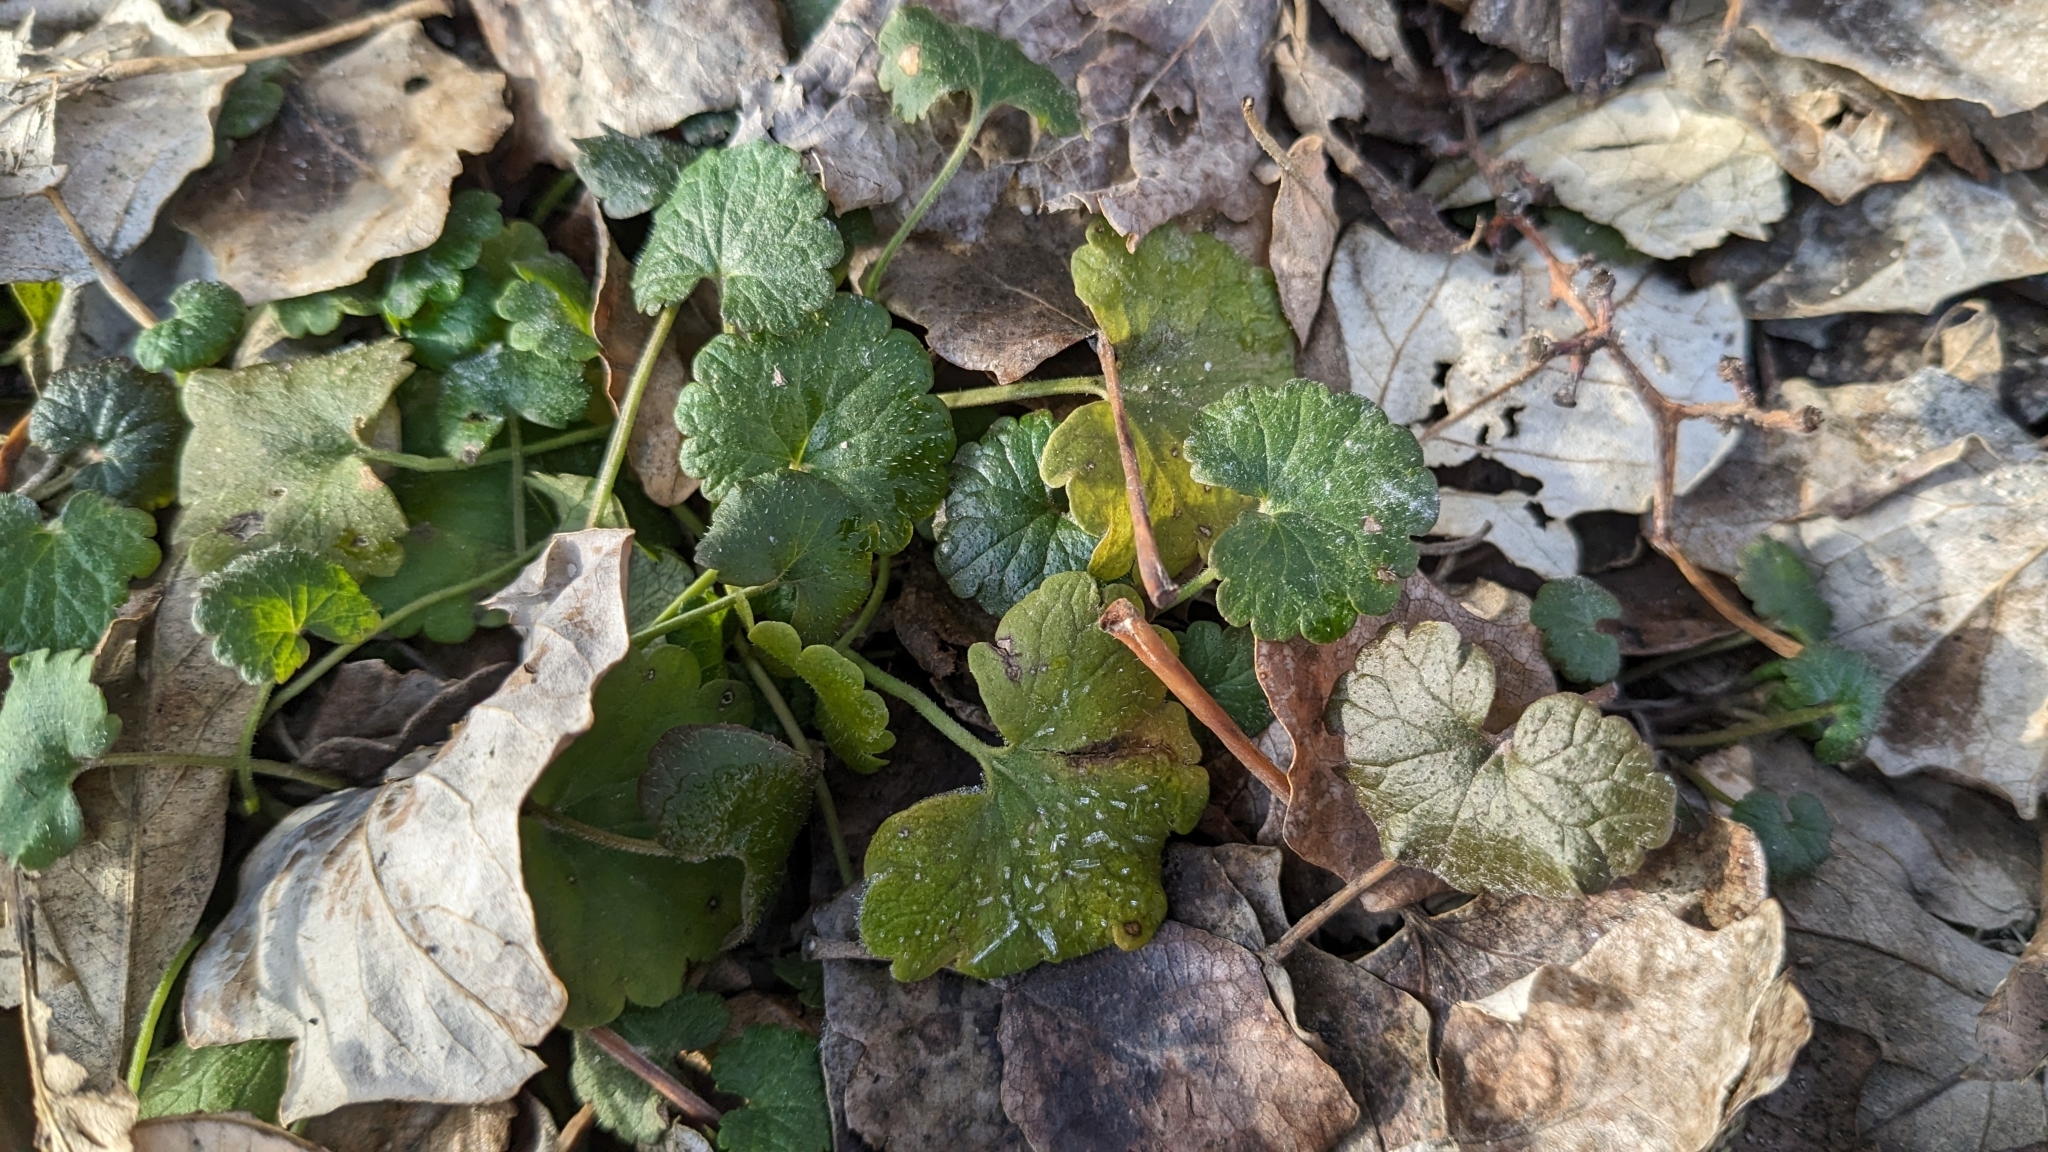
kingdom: Plantae
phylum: Tracheophyta
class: Magnoliopsida
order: Lamiales
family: Lamiaceae
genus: Glechoma
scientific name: Glechoma hederacea
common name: Ground ivy
